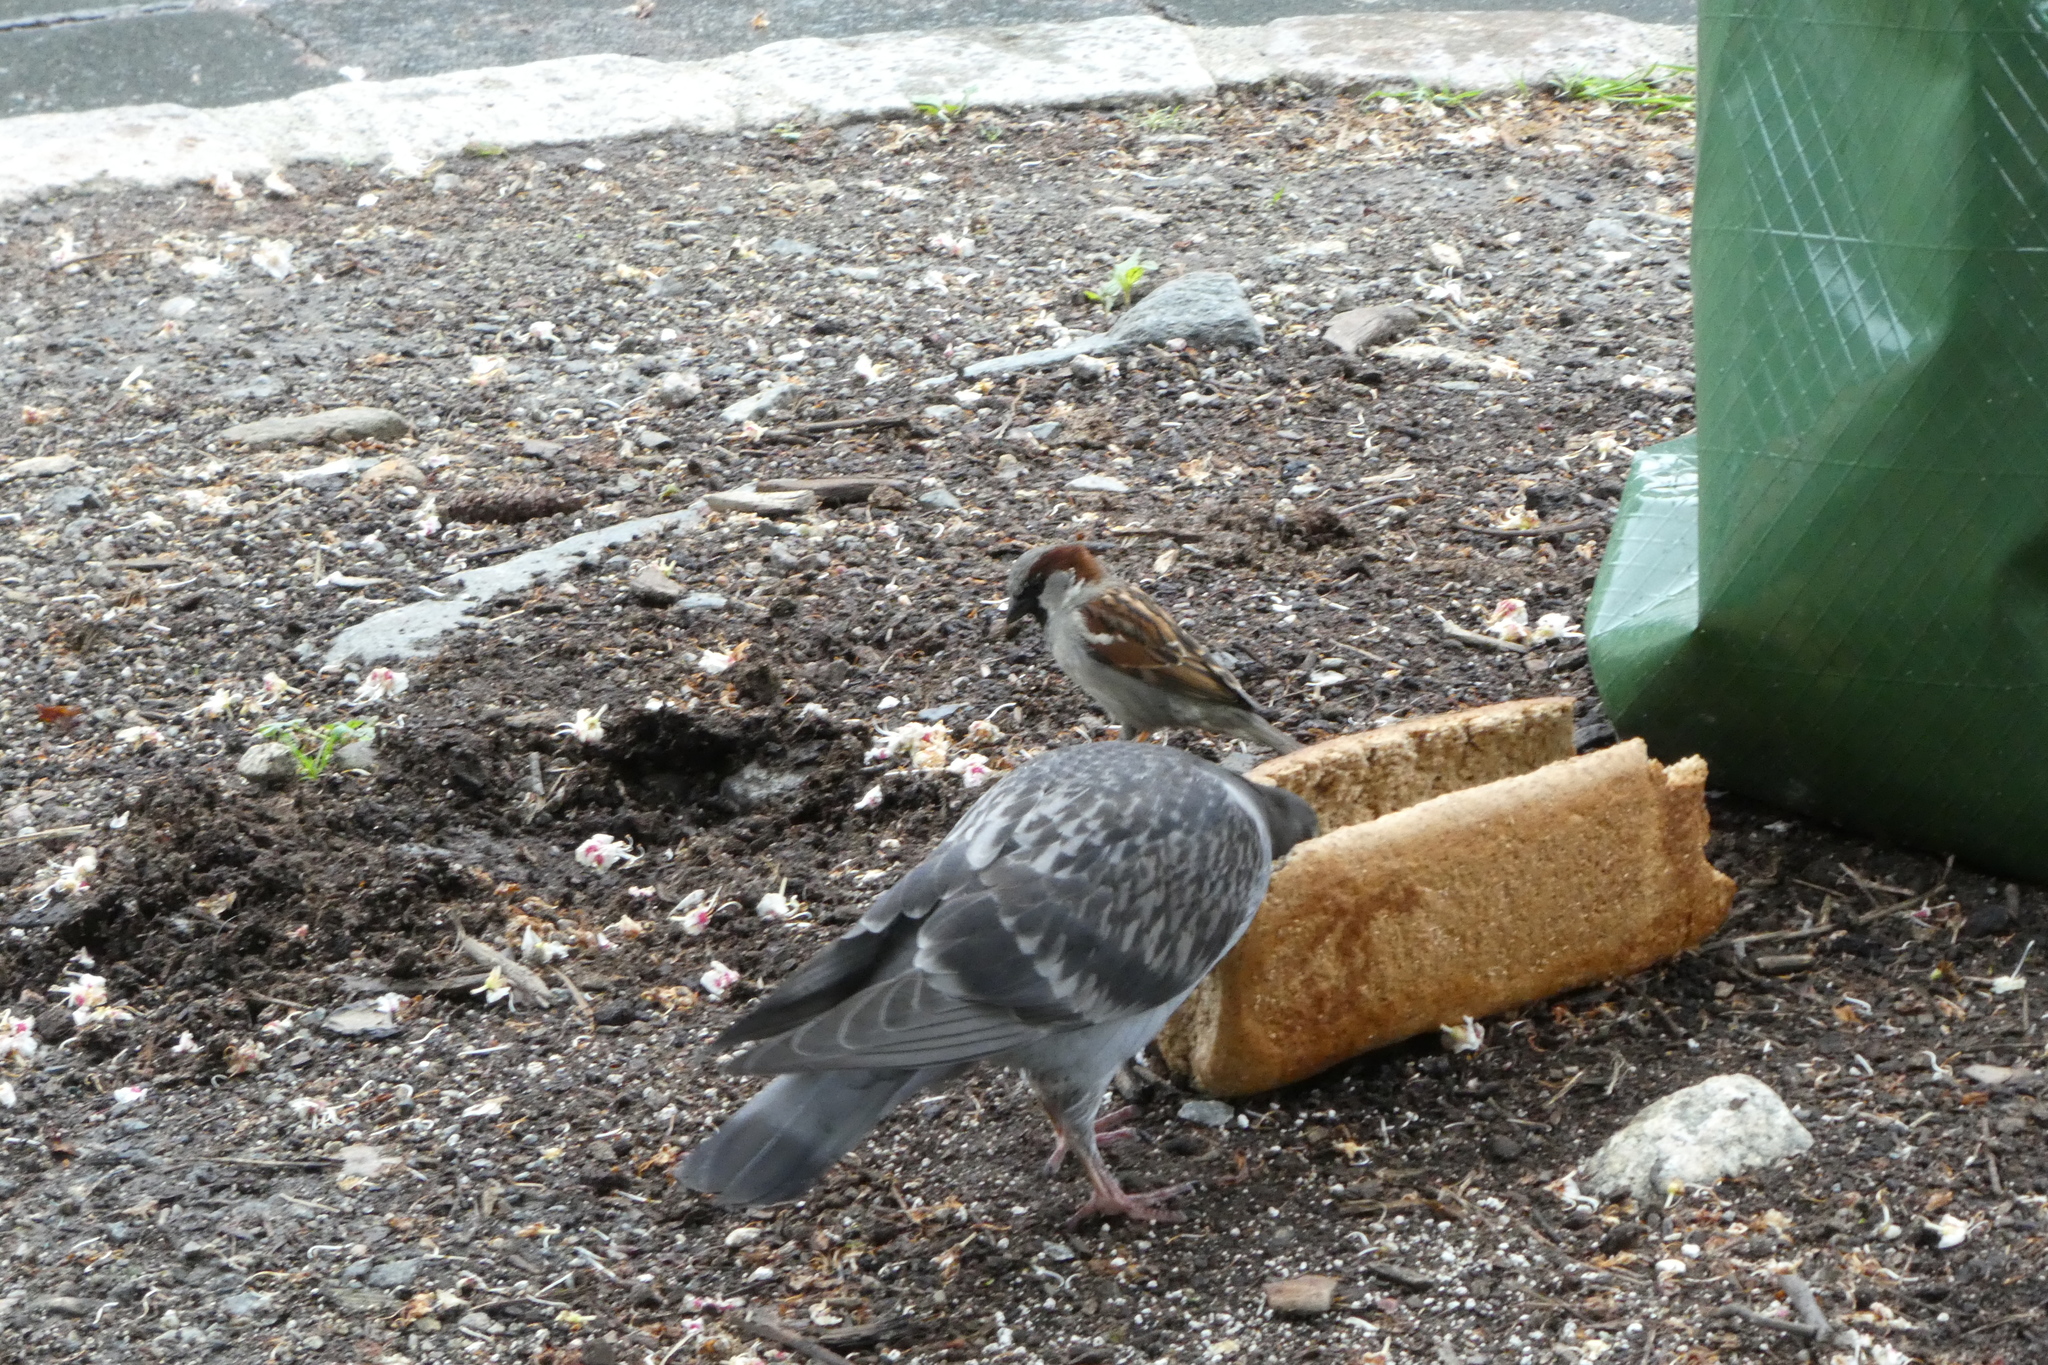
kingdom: Animalia
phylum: Chordata
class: Aves
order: Passeriformes
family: Passeridae
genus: Passer
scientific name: Passer domesticus
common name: House sparrow
